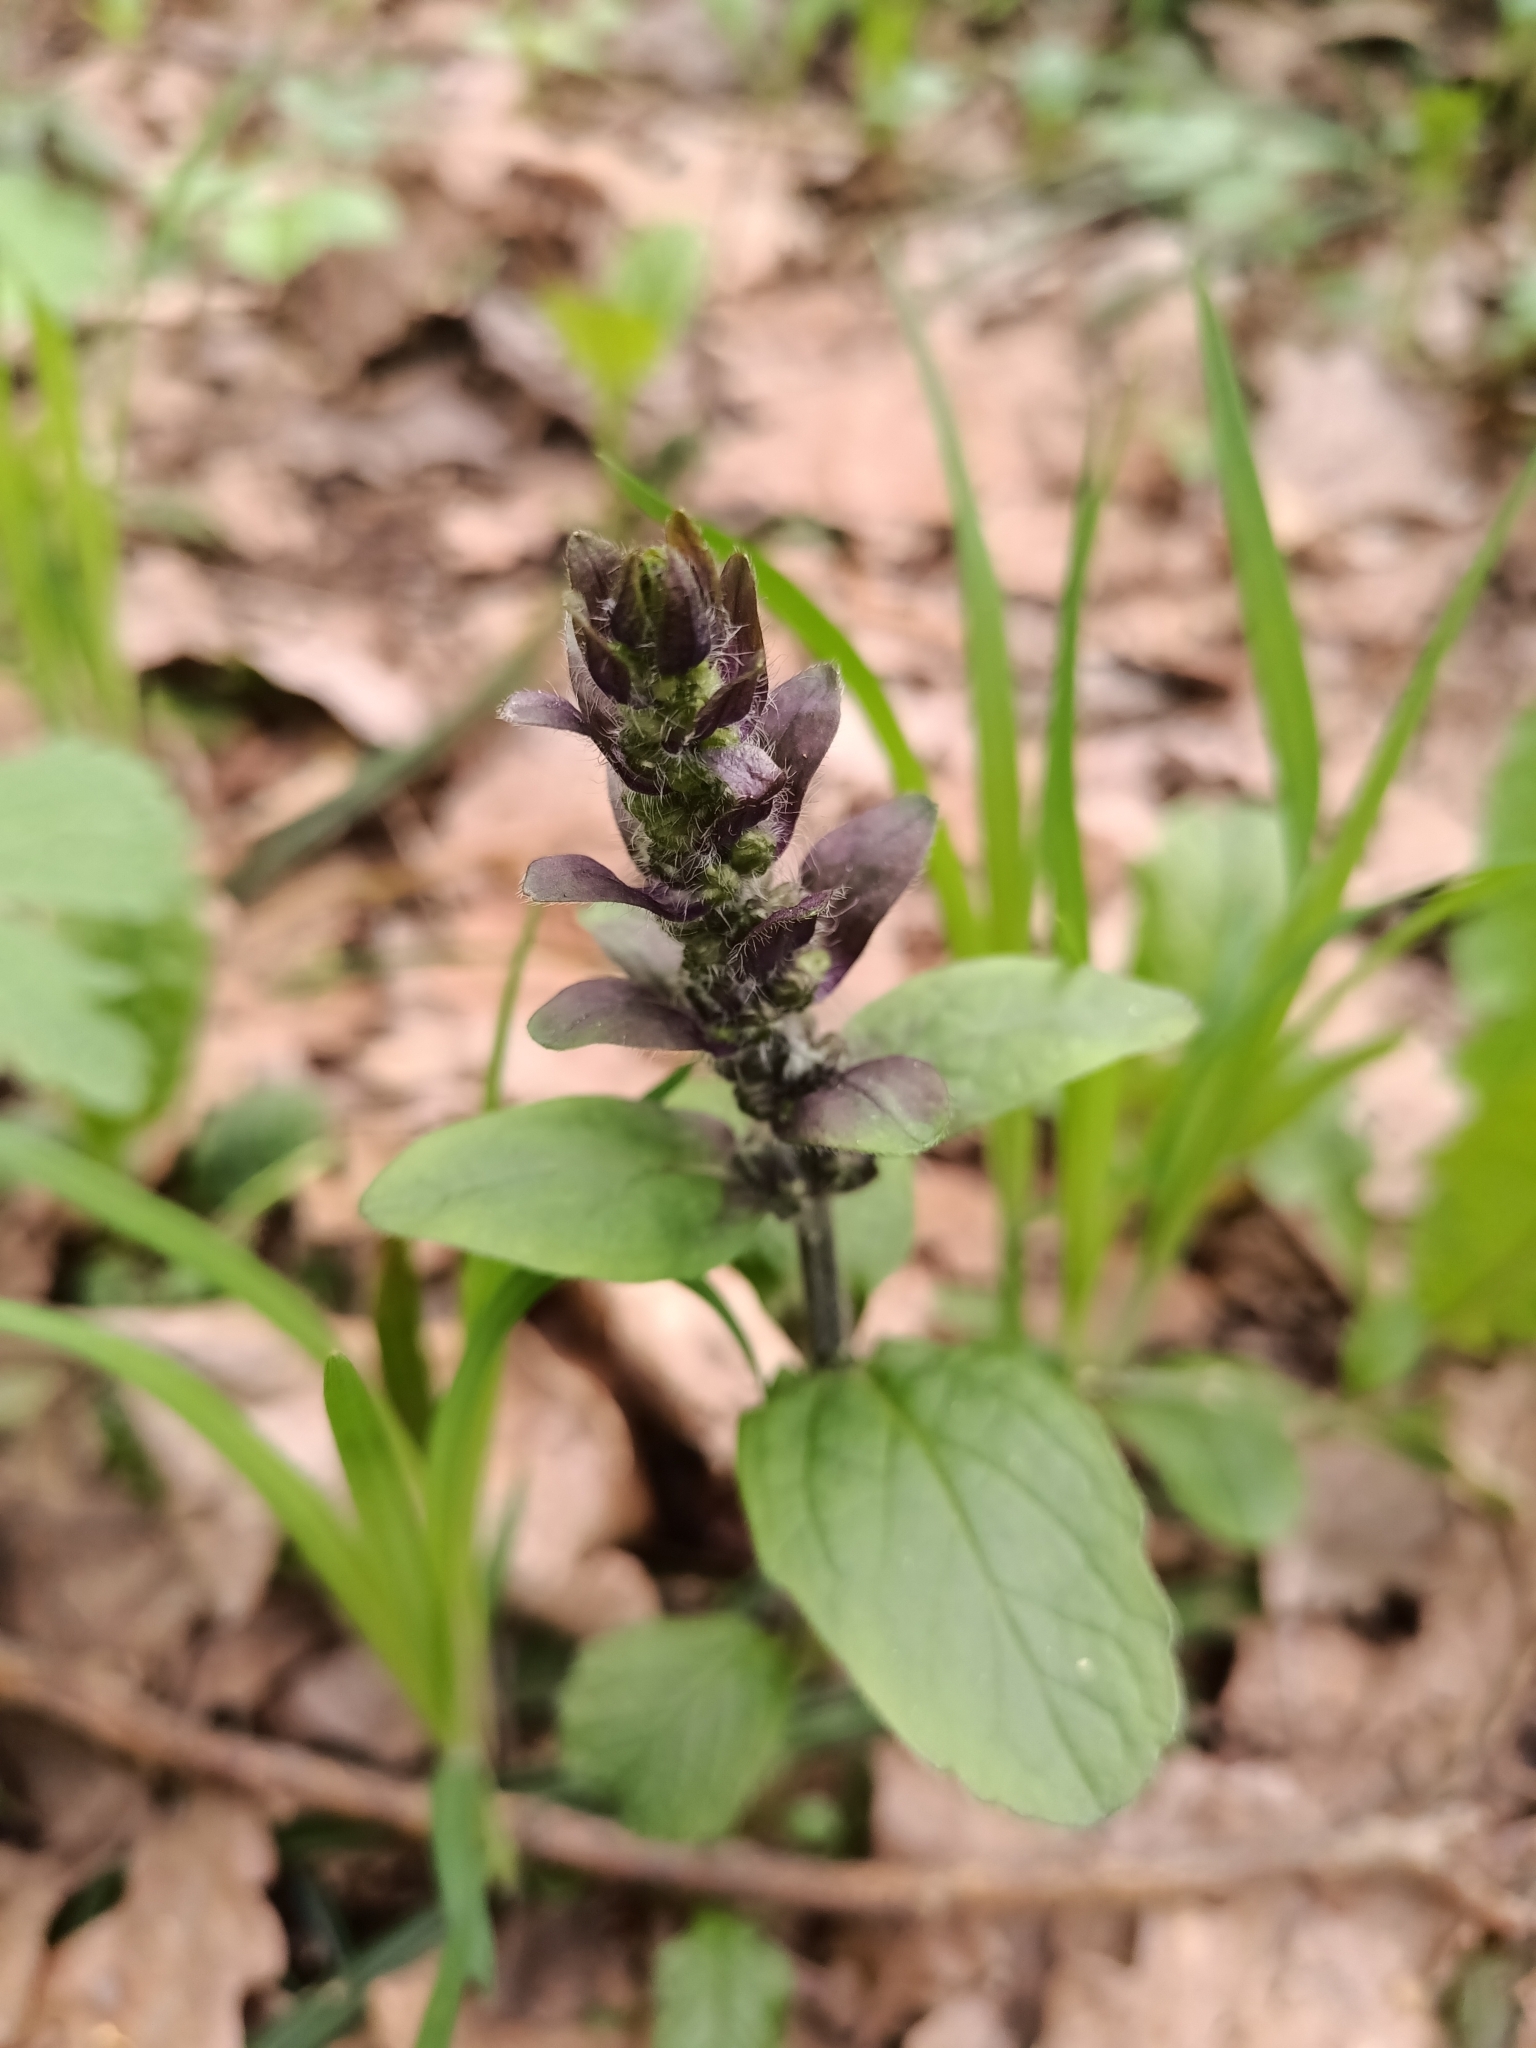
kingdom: Plantae
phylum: Tracheophyta
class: Magnoliopsida
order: Lamiales
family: Lamiaceae
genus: Ajuga
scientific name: Ajuga reptans
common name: Bugle
